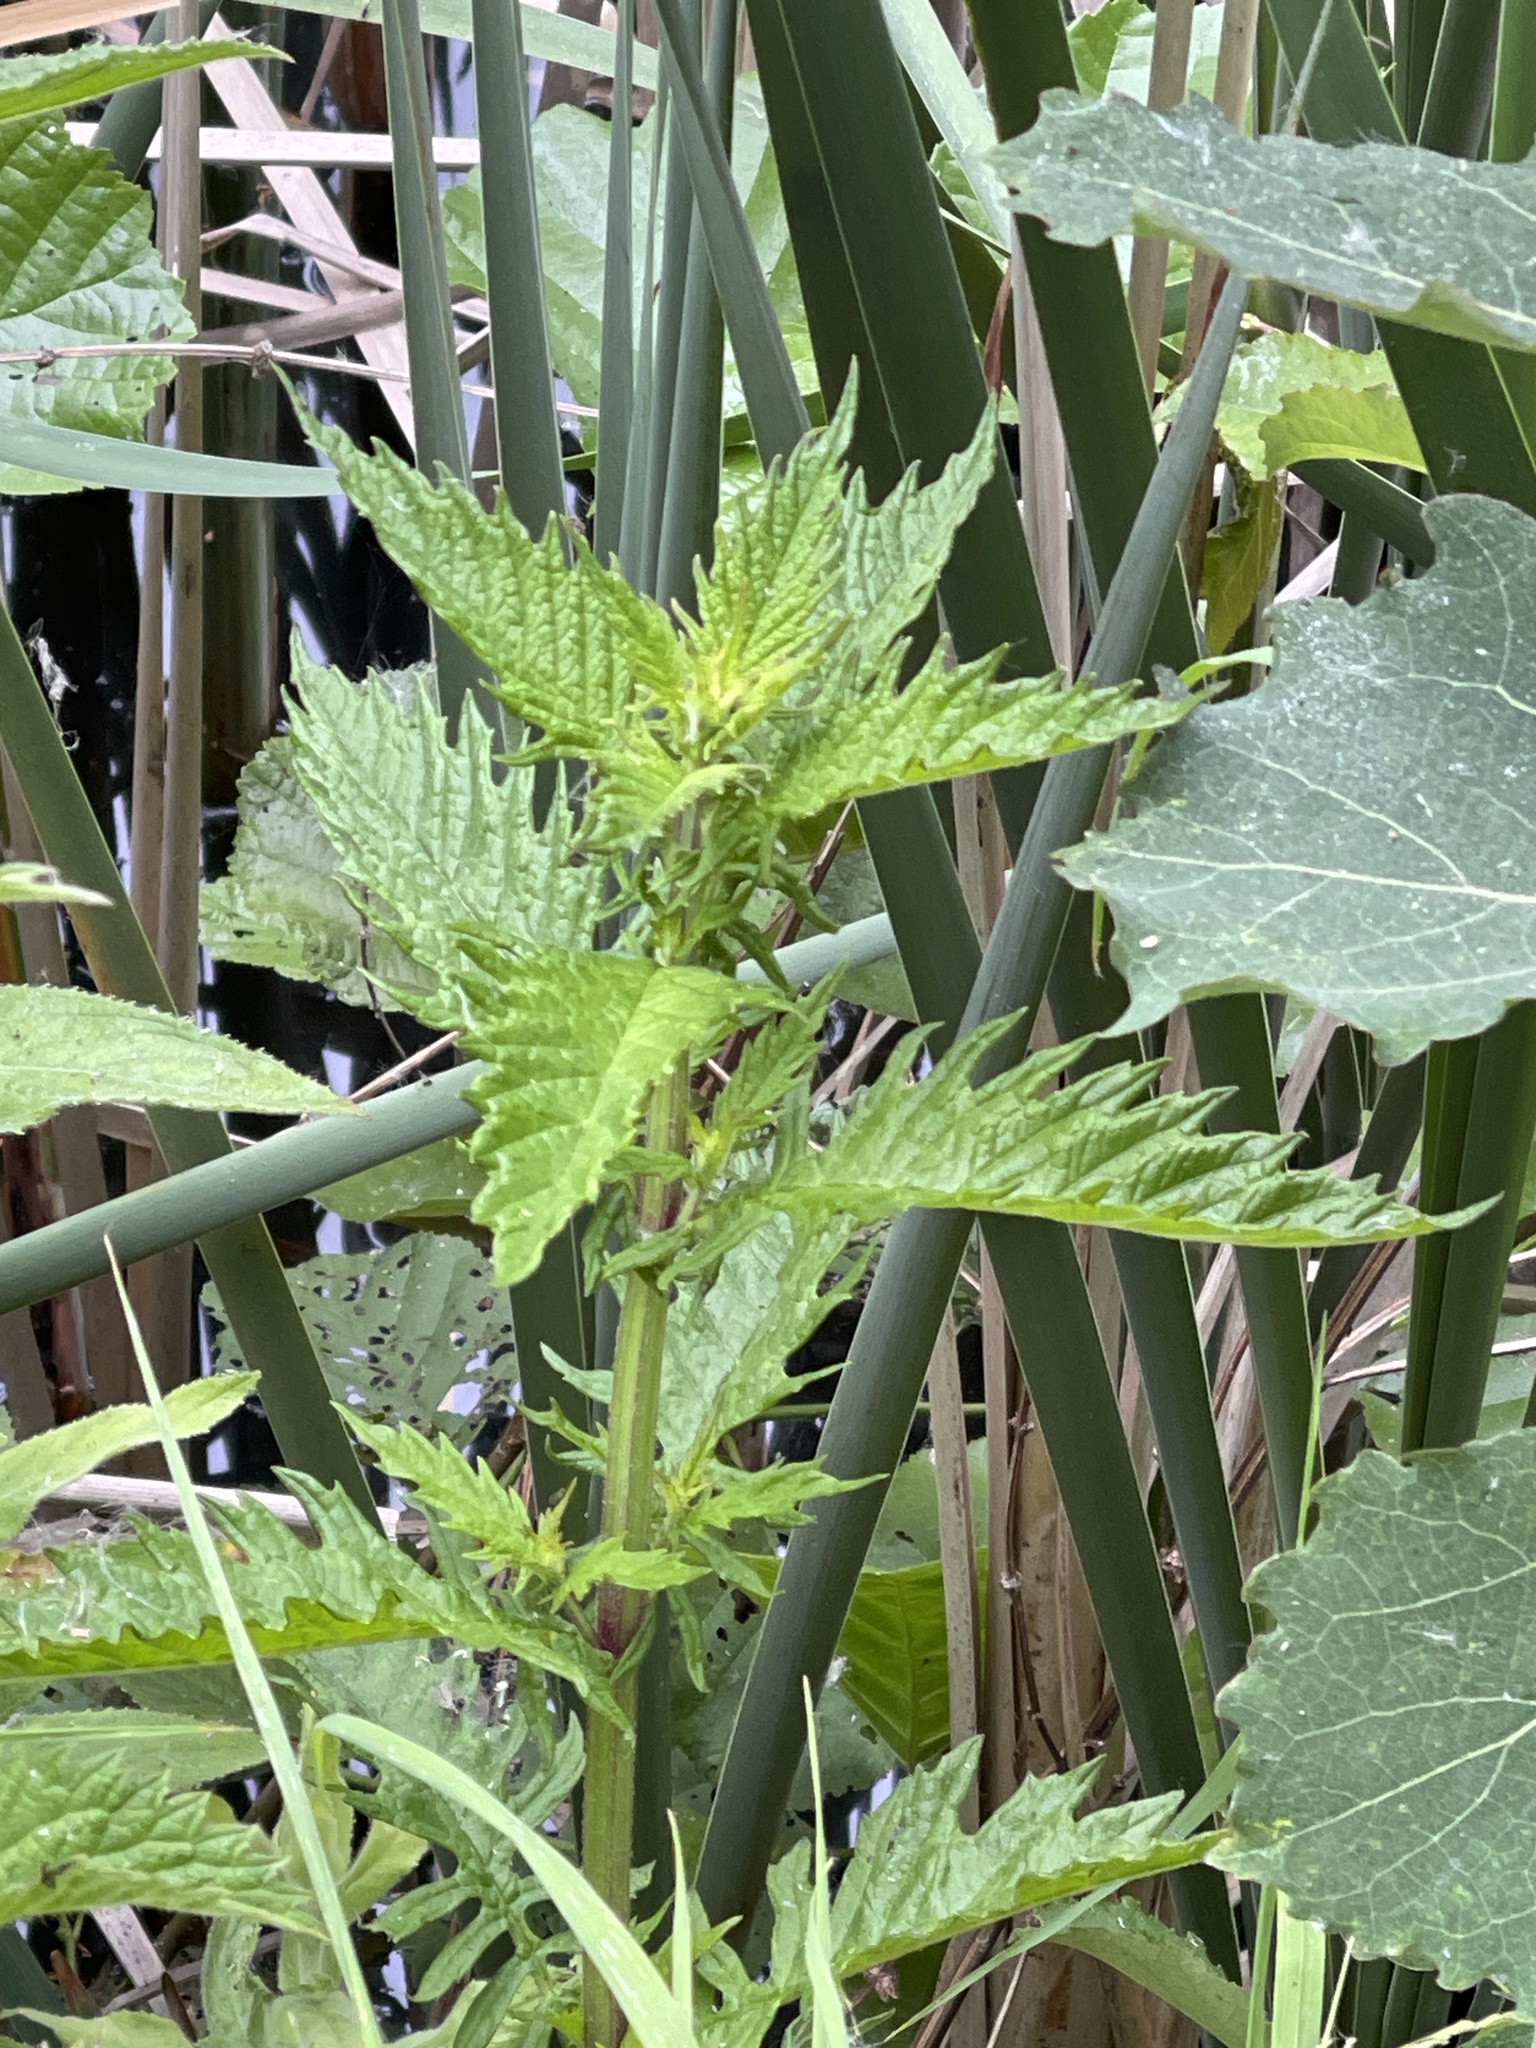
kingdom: Plantae
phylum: Tracheophyta
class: Magnoliopsida
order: Lamiales
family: Lamiaceae
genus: Lycopus
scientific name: Lycopus europaeus
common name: European bugleweed
